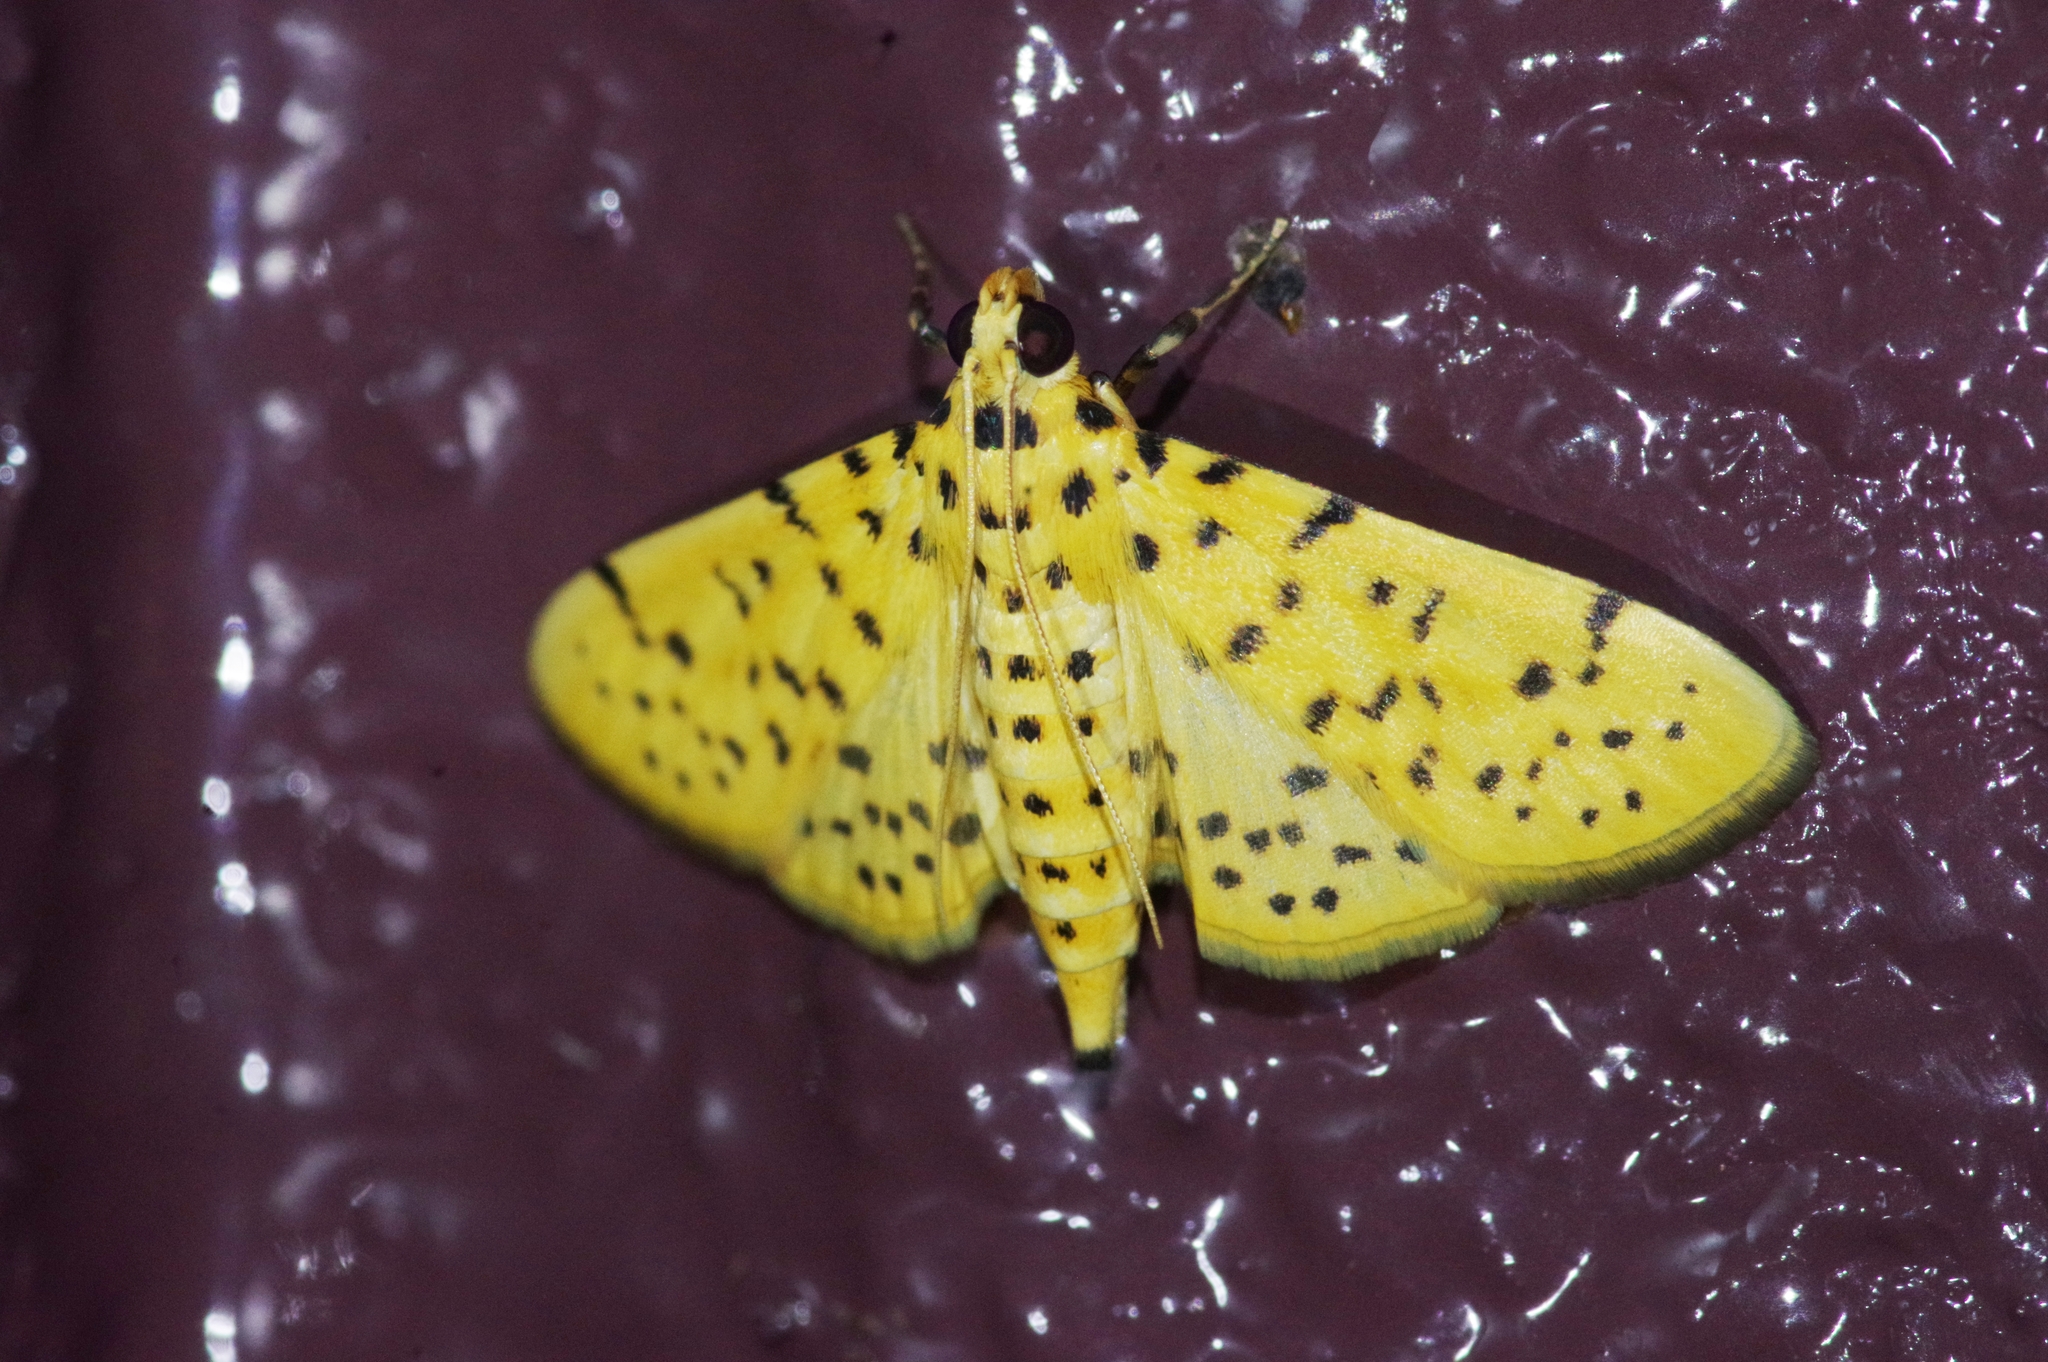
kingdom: Animalia
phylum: Arthropoda
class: Insecta
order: Lepidoptera
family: Crambidae
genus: Conogethes
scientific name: Conogethes punctiferalis
